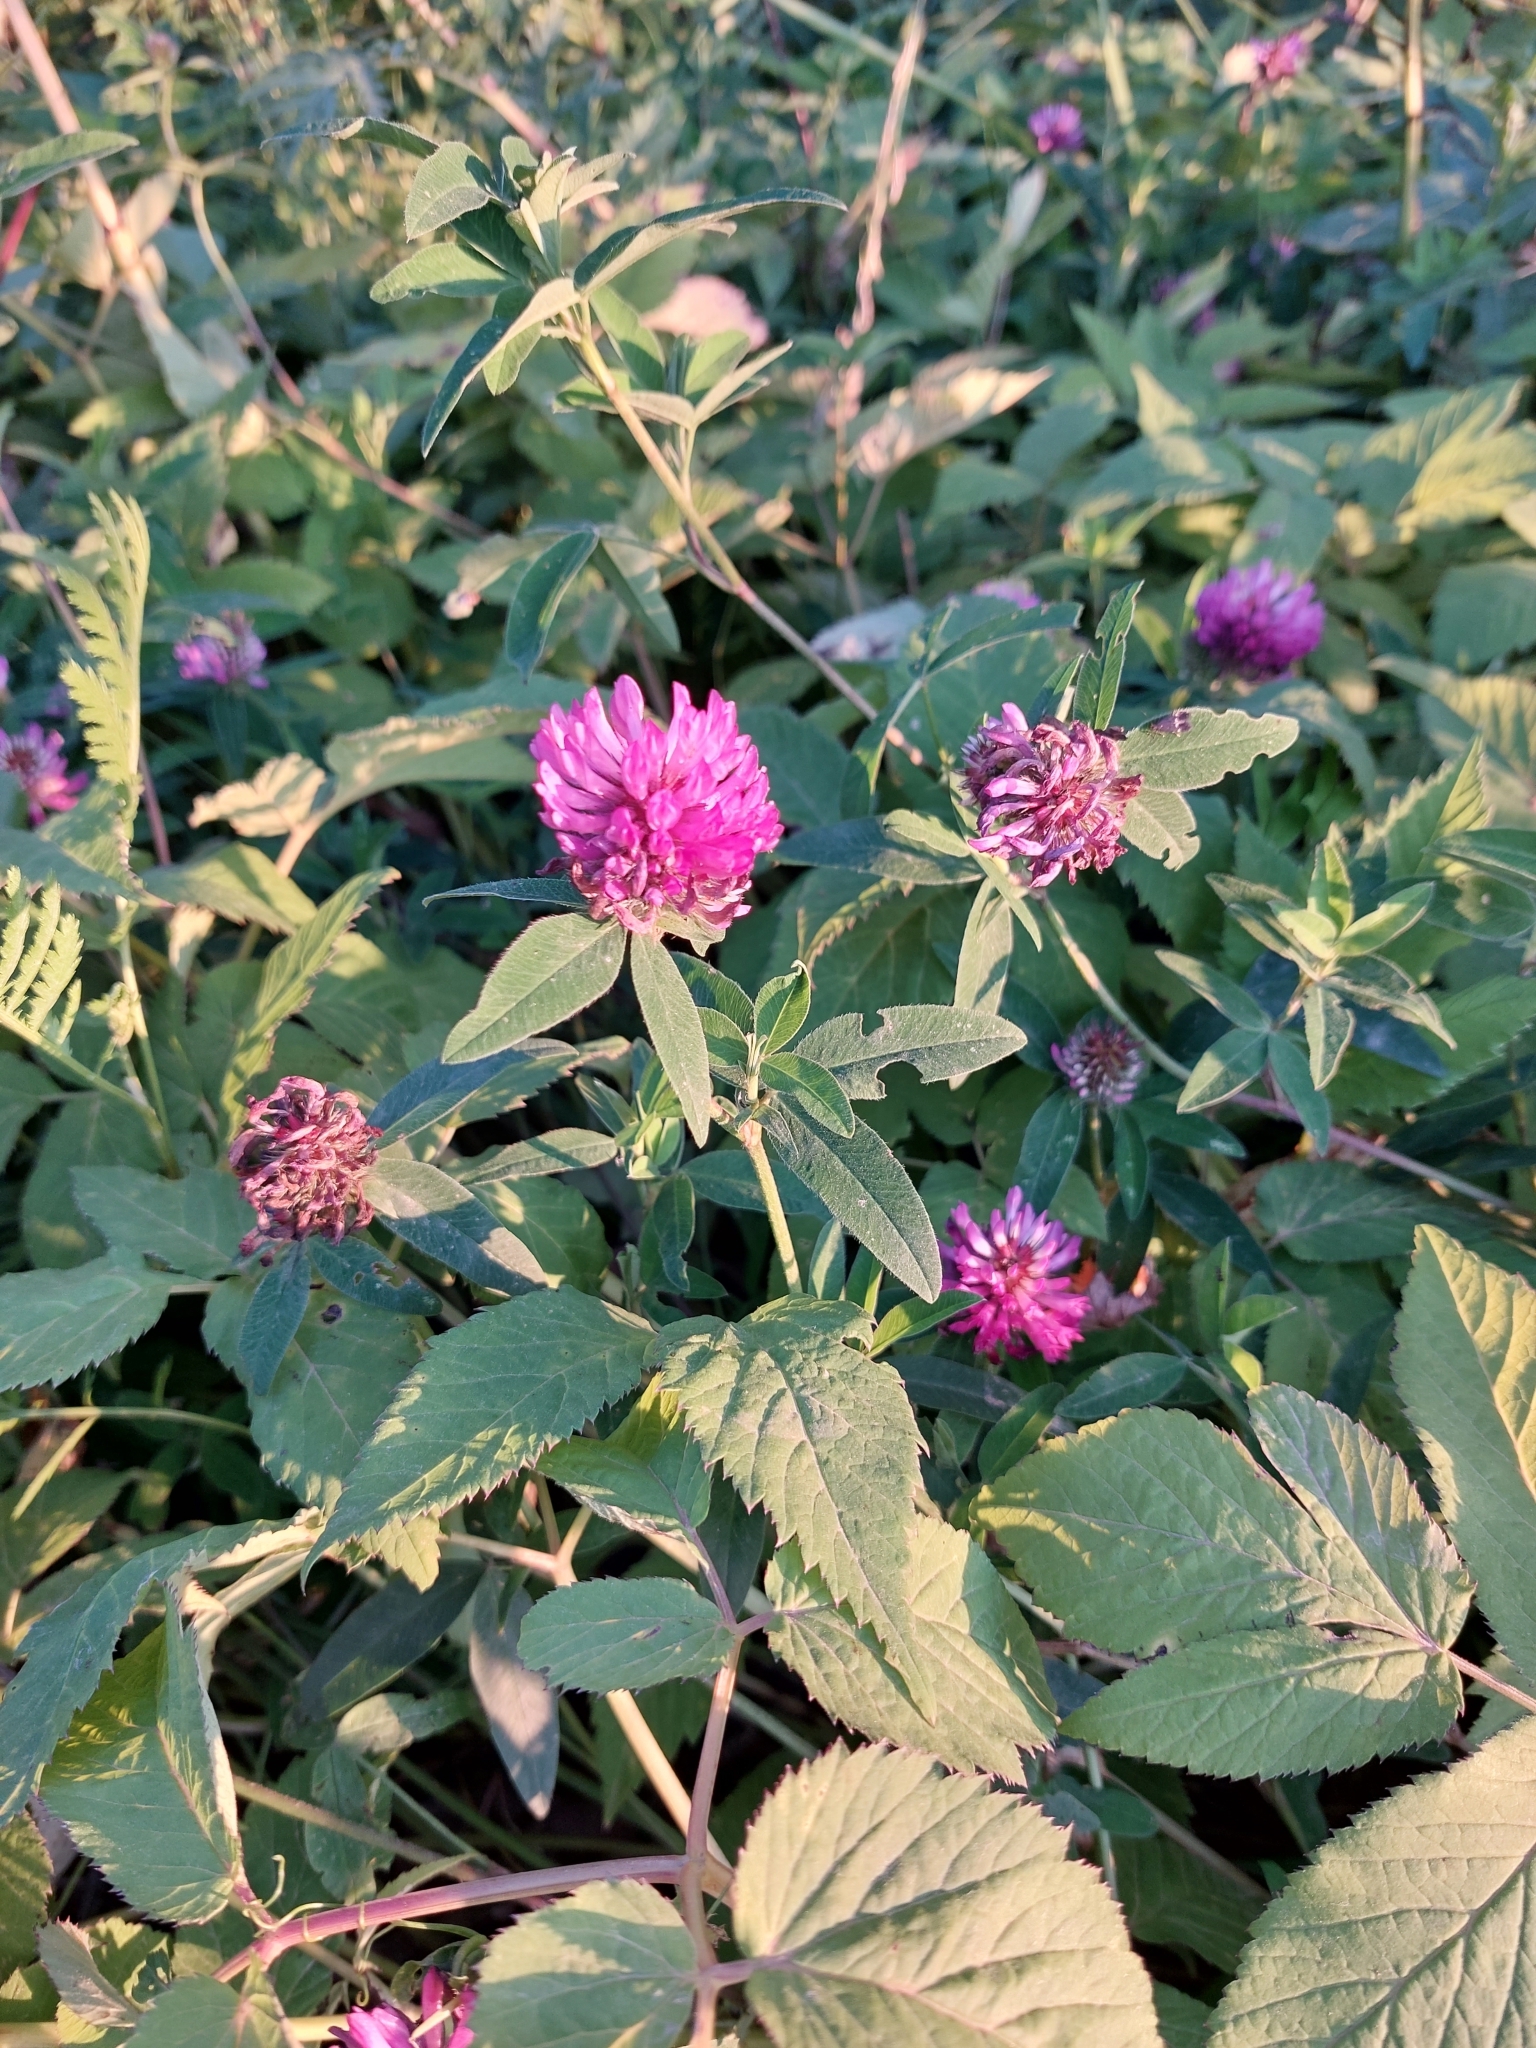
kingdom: Plantae
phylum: Tracheophyta
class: Magnoliopsida
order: Fabales
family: Fabaceae
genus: Trifolium
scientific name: Trifolium medium
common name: Zigzag clover
